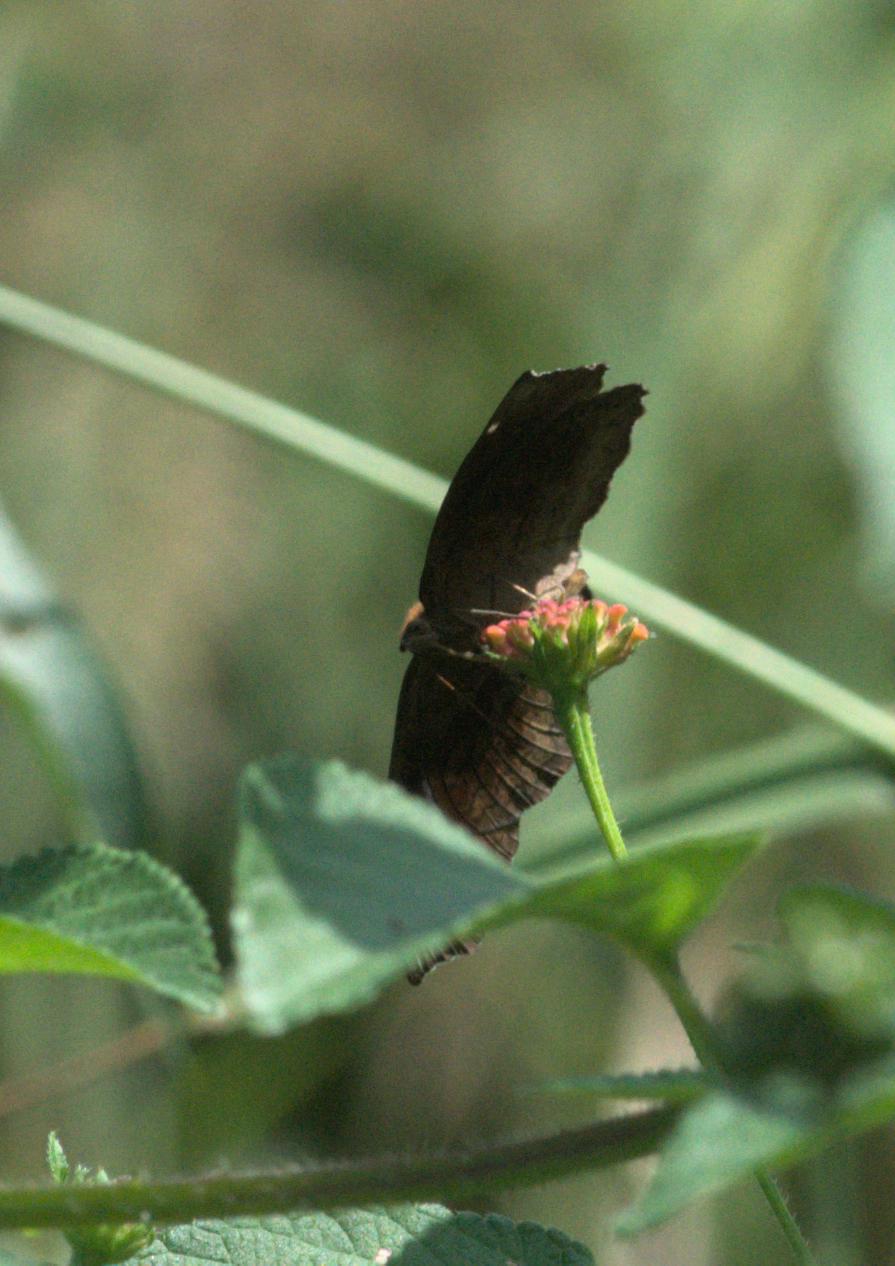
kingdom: Animalia
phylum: Arthropoda
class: Insecta
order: Lepidoptera
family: Nymphalidae
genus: Ariadne
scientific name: Ariadne merione
